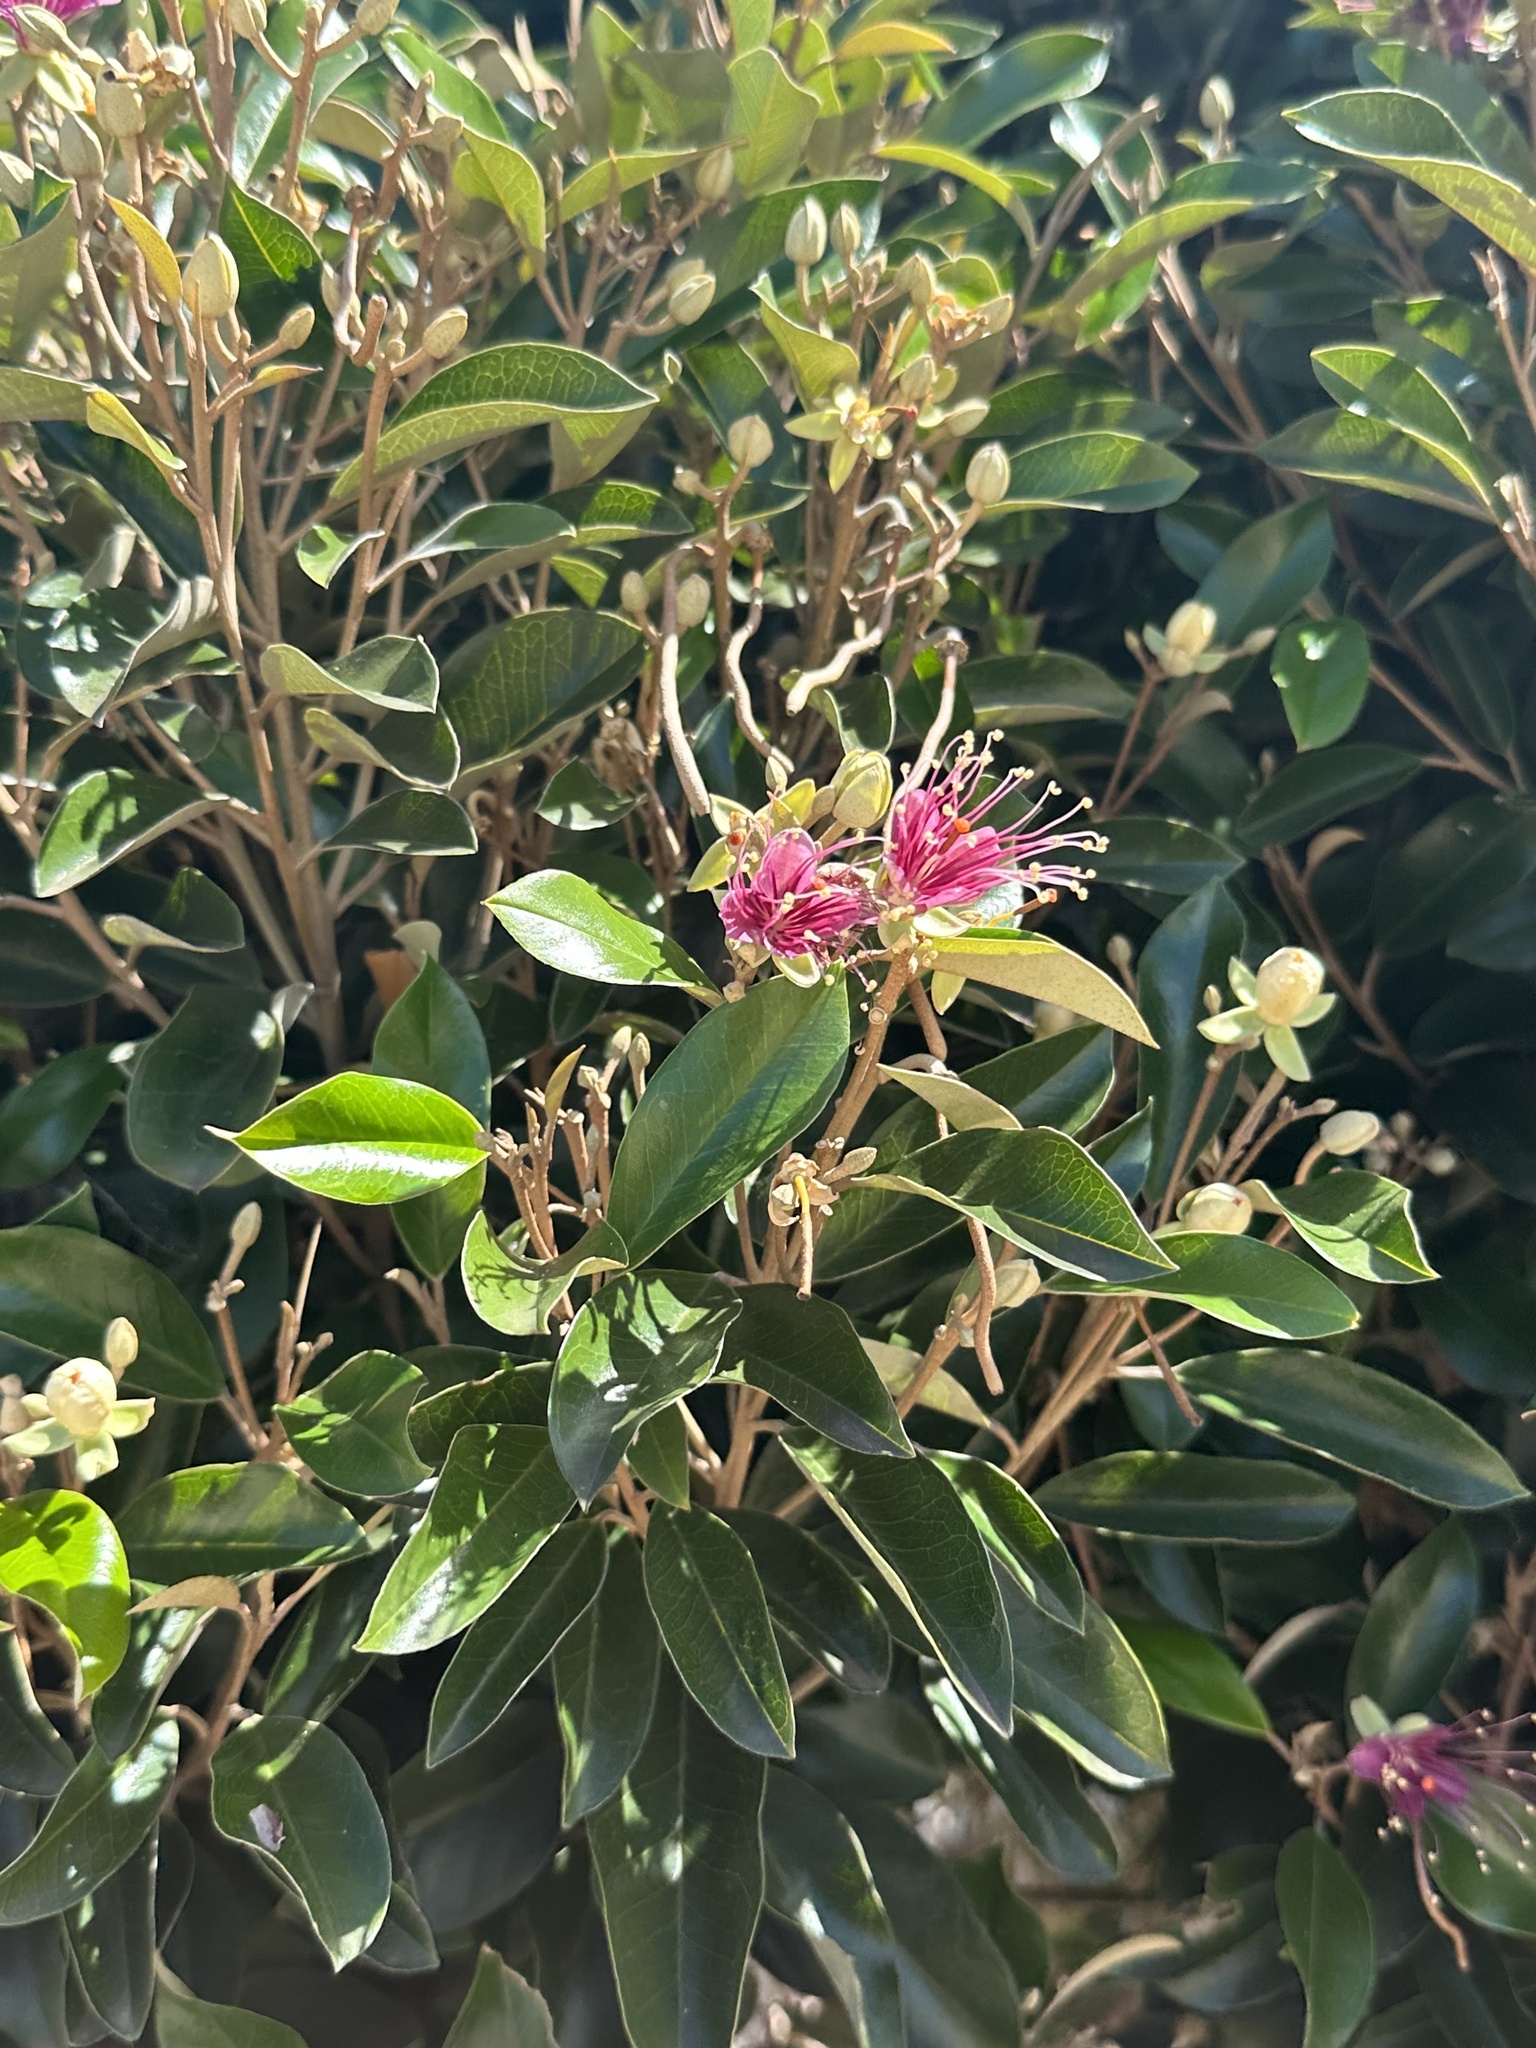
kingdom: Plantae
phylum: Tracheophyta
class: Magnoliopsida
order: Brassicales
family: Capparaceae
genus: Quadrella
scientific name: Quadrella cynophallophora
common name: Black willow
